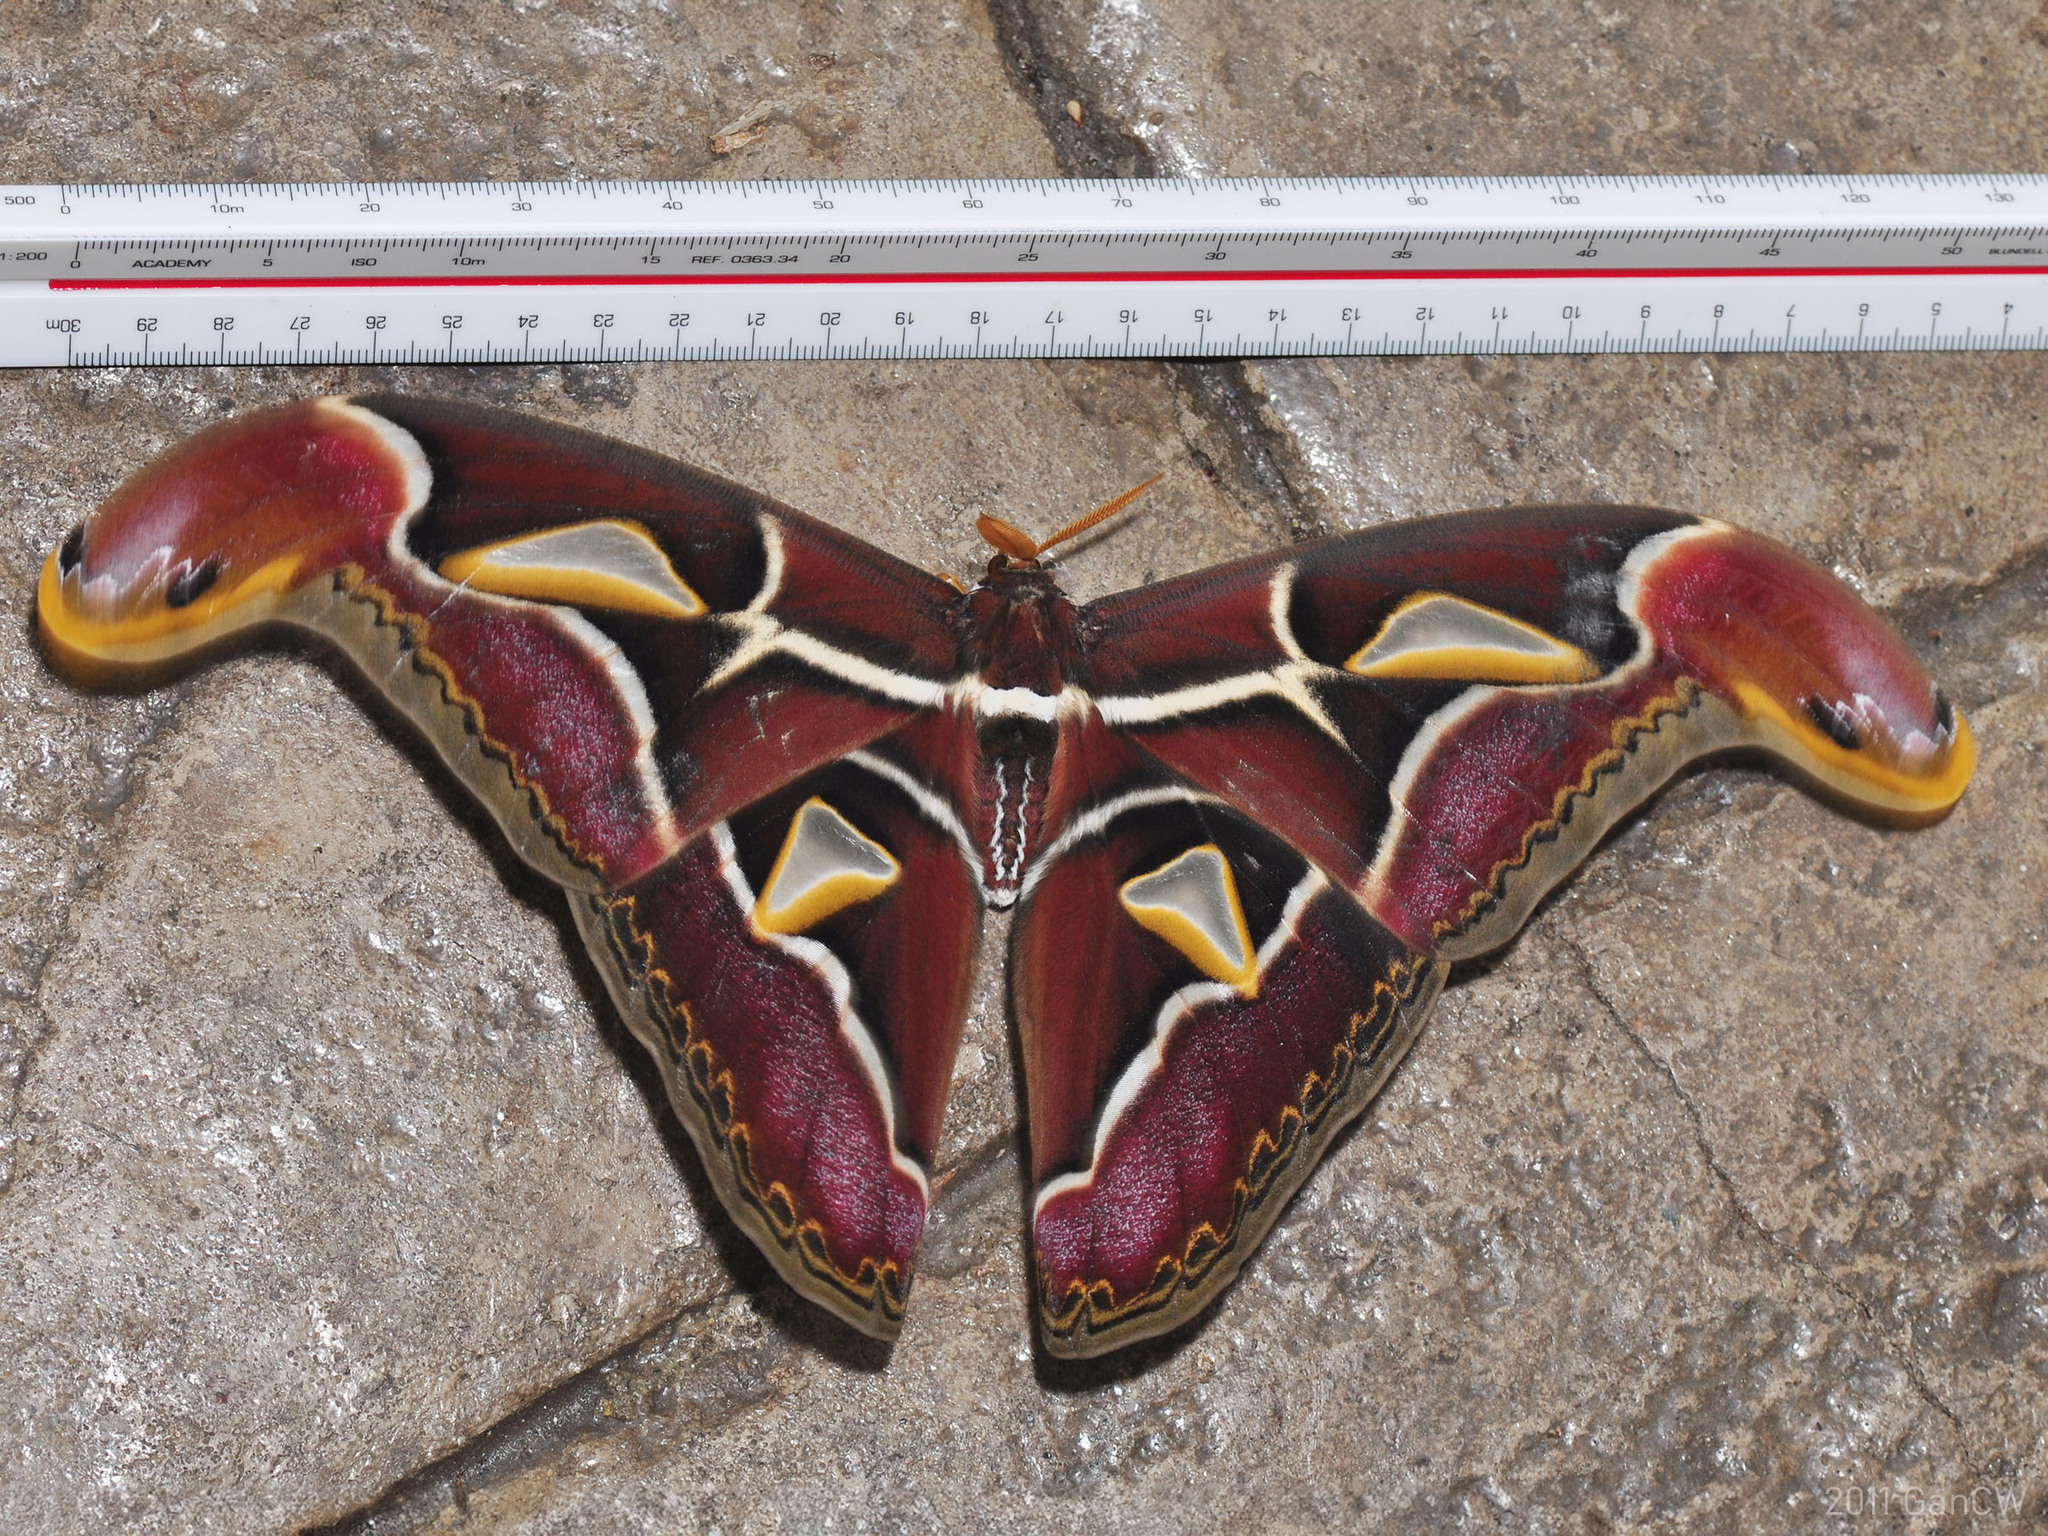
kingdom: Animalia
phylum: Arthropoda
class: Insecta
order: Lepidoptera
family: Saturniidae
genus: Archaeoattacus
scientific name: Archaeoattacus edwardsii
